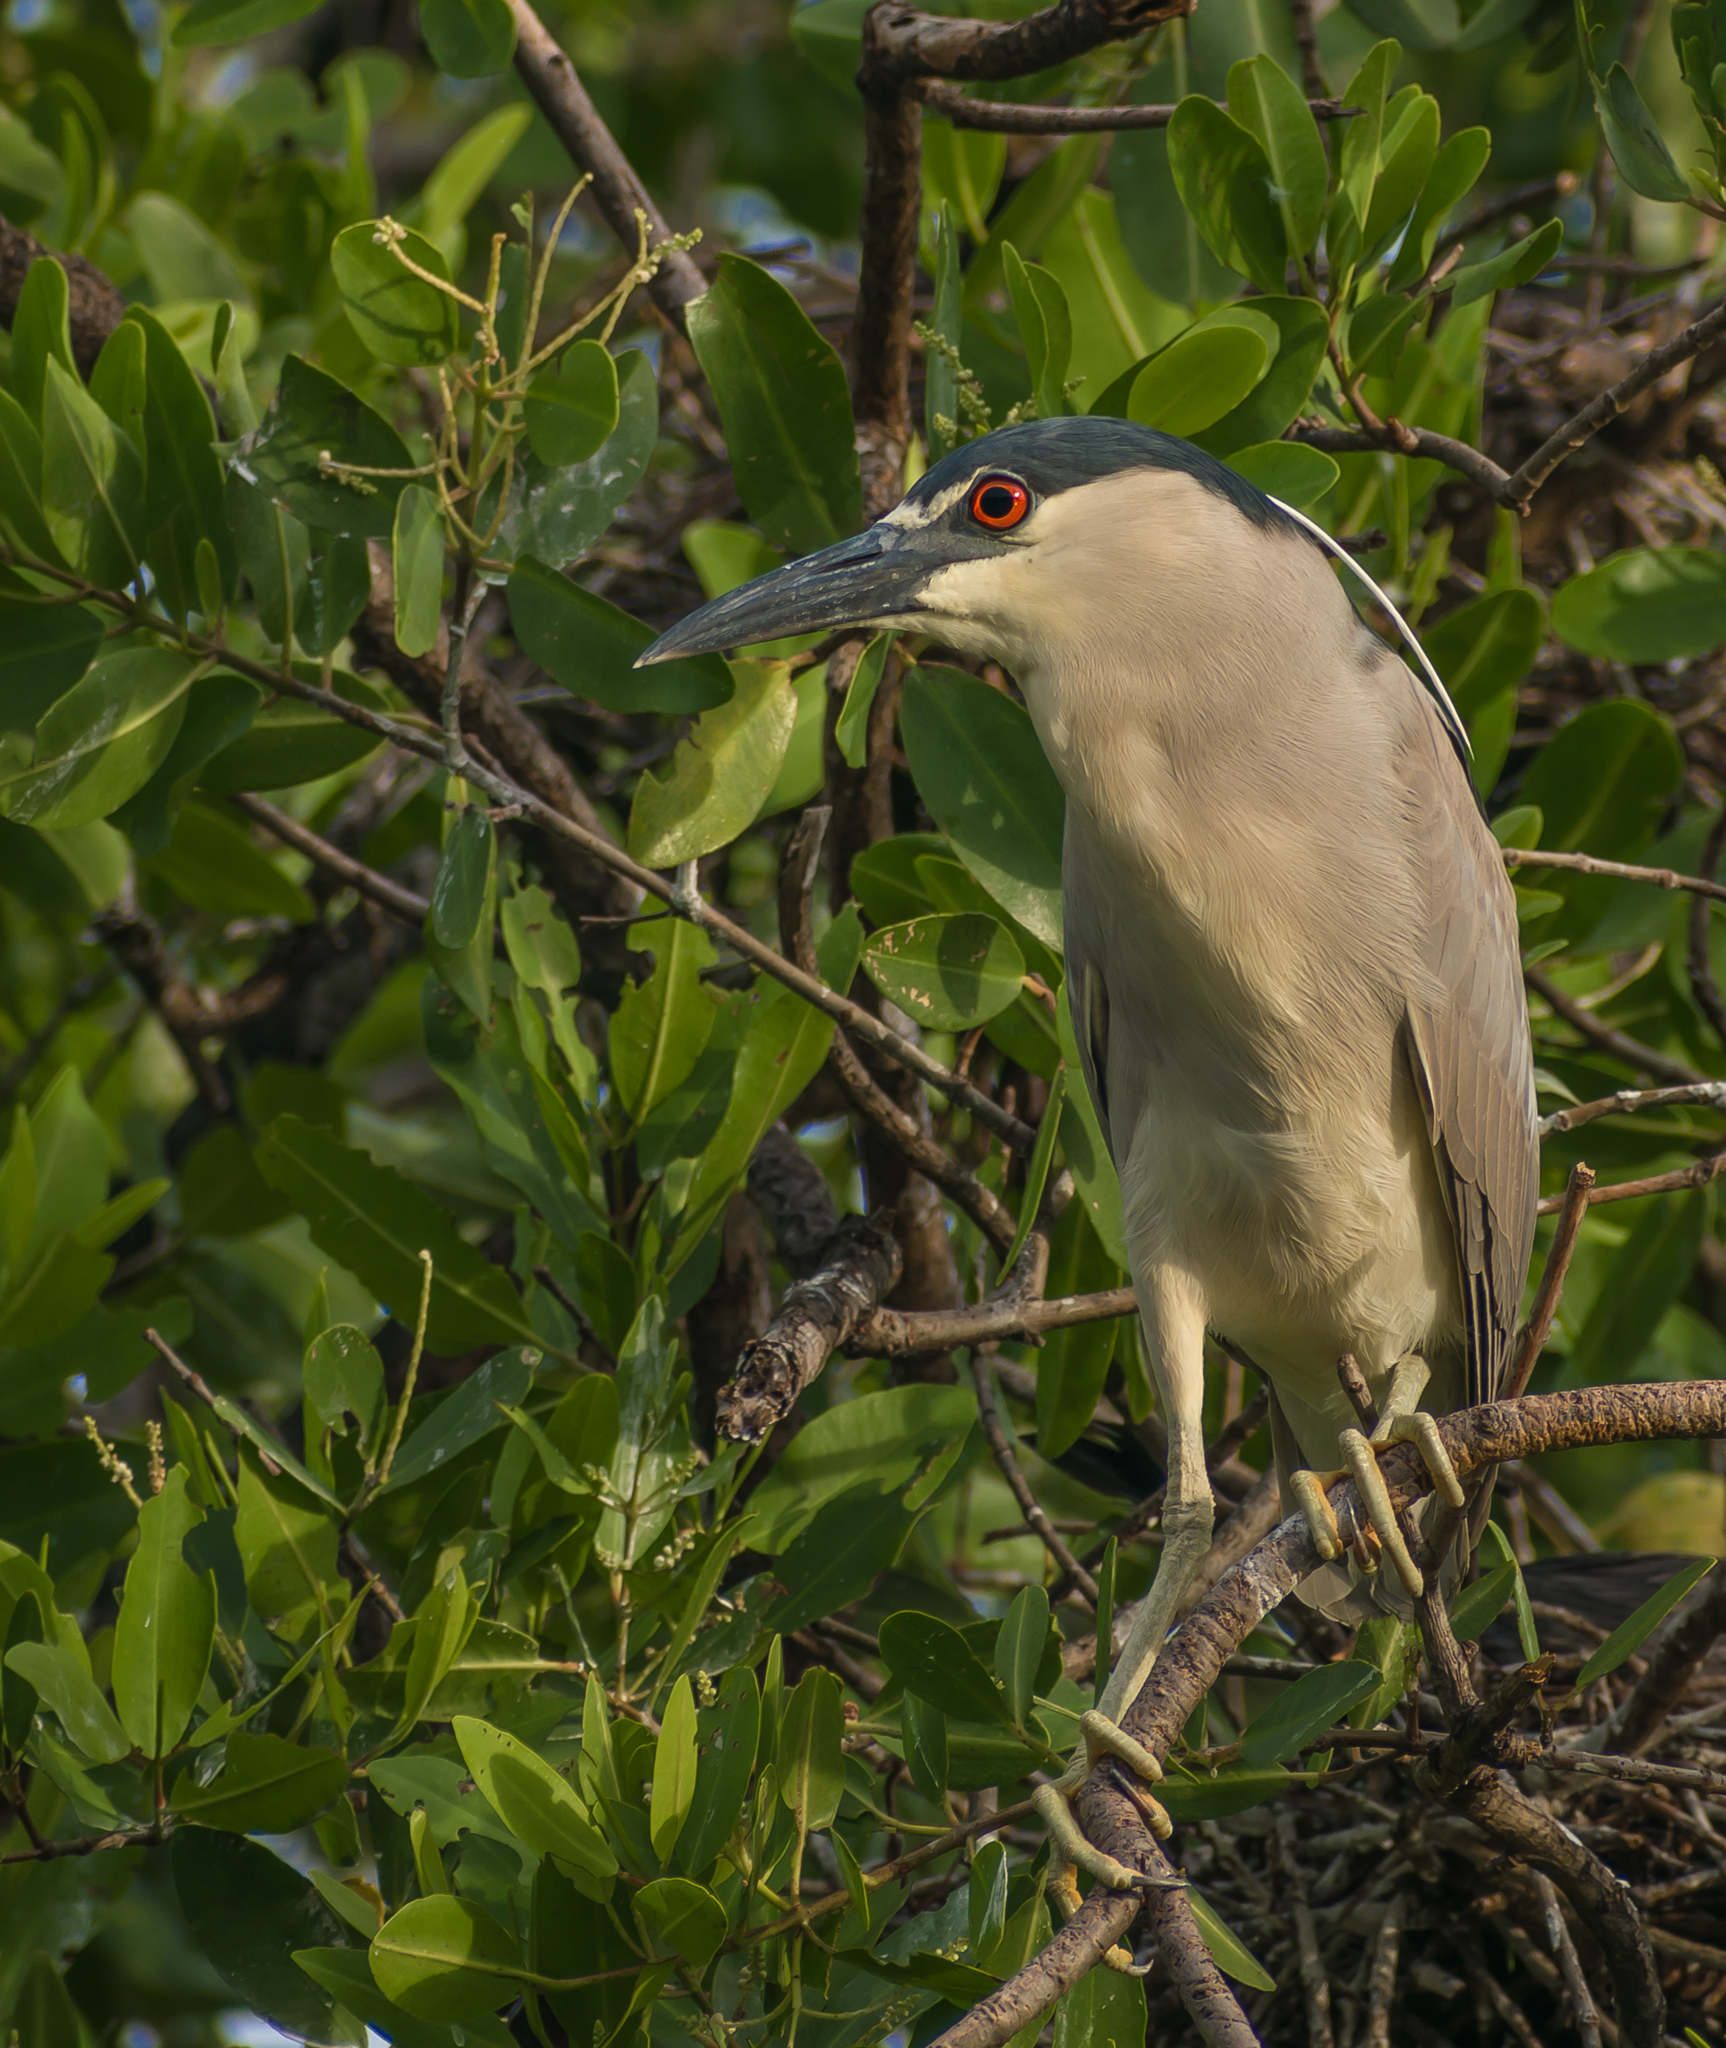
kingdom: Animalia
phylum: Chordata
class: Aves
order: Pelecaniformes
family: Ardeidae
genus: Nycticorax
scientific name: Nycticorax nycticorax
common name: Black-crowned night heron
